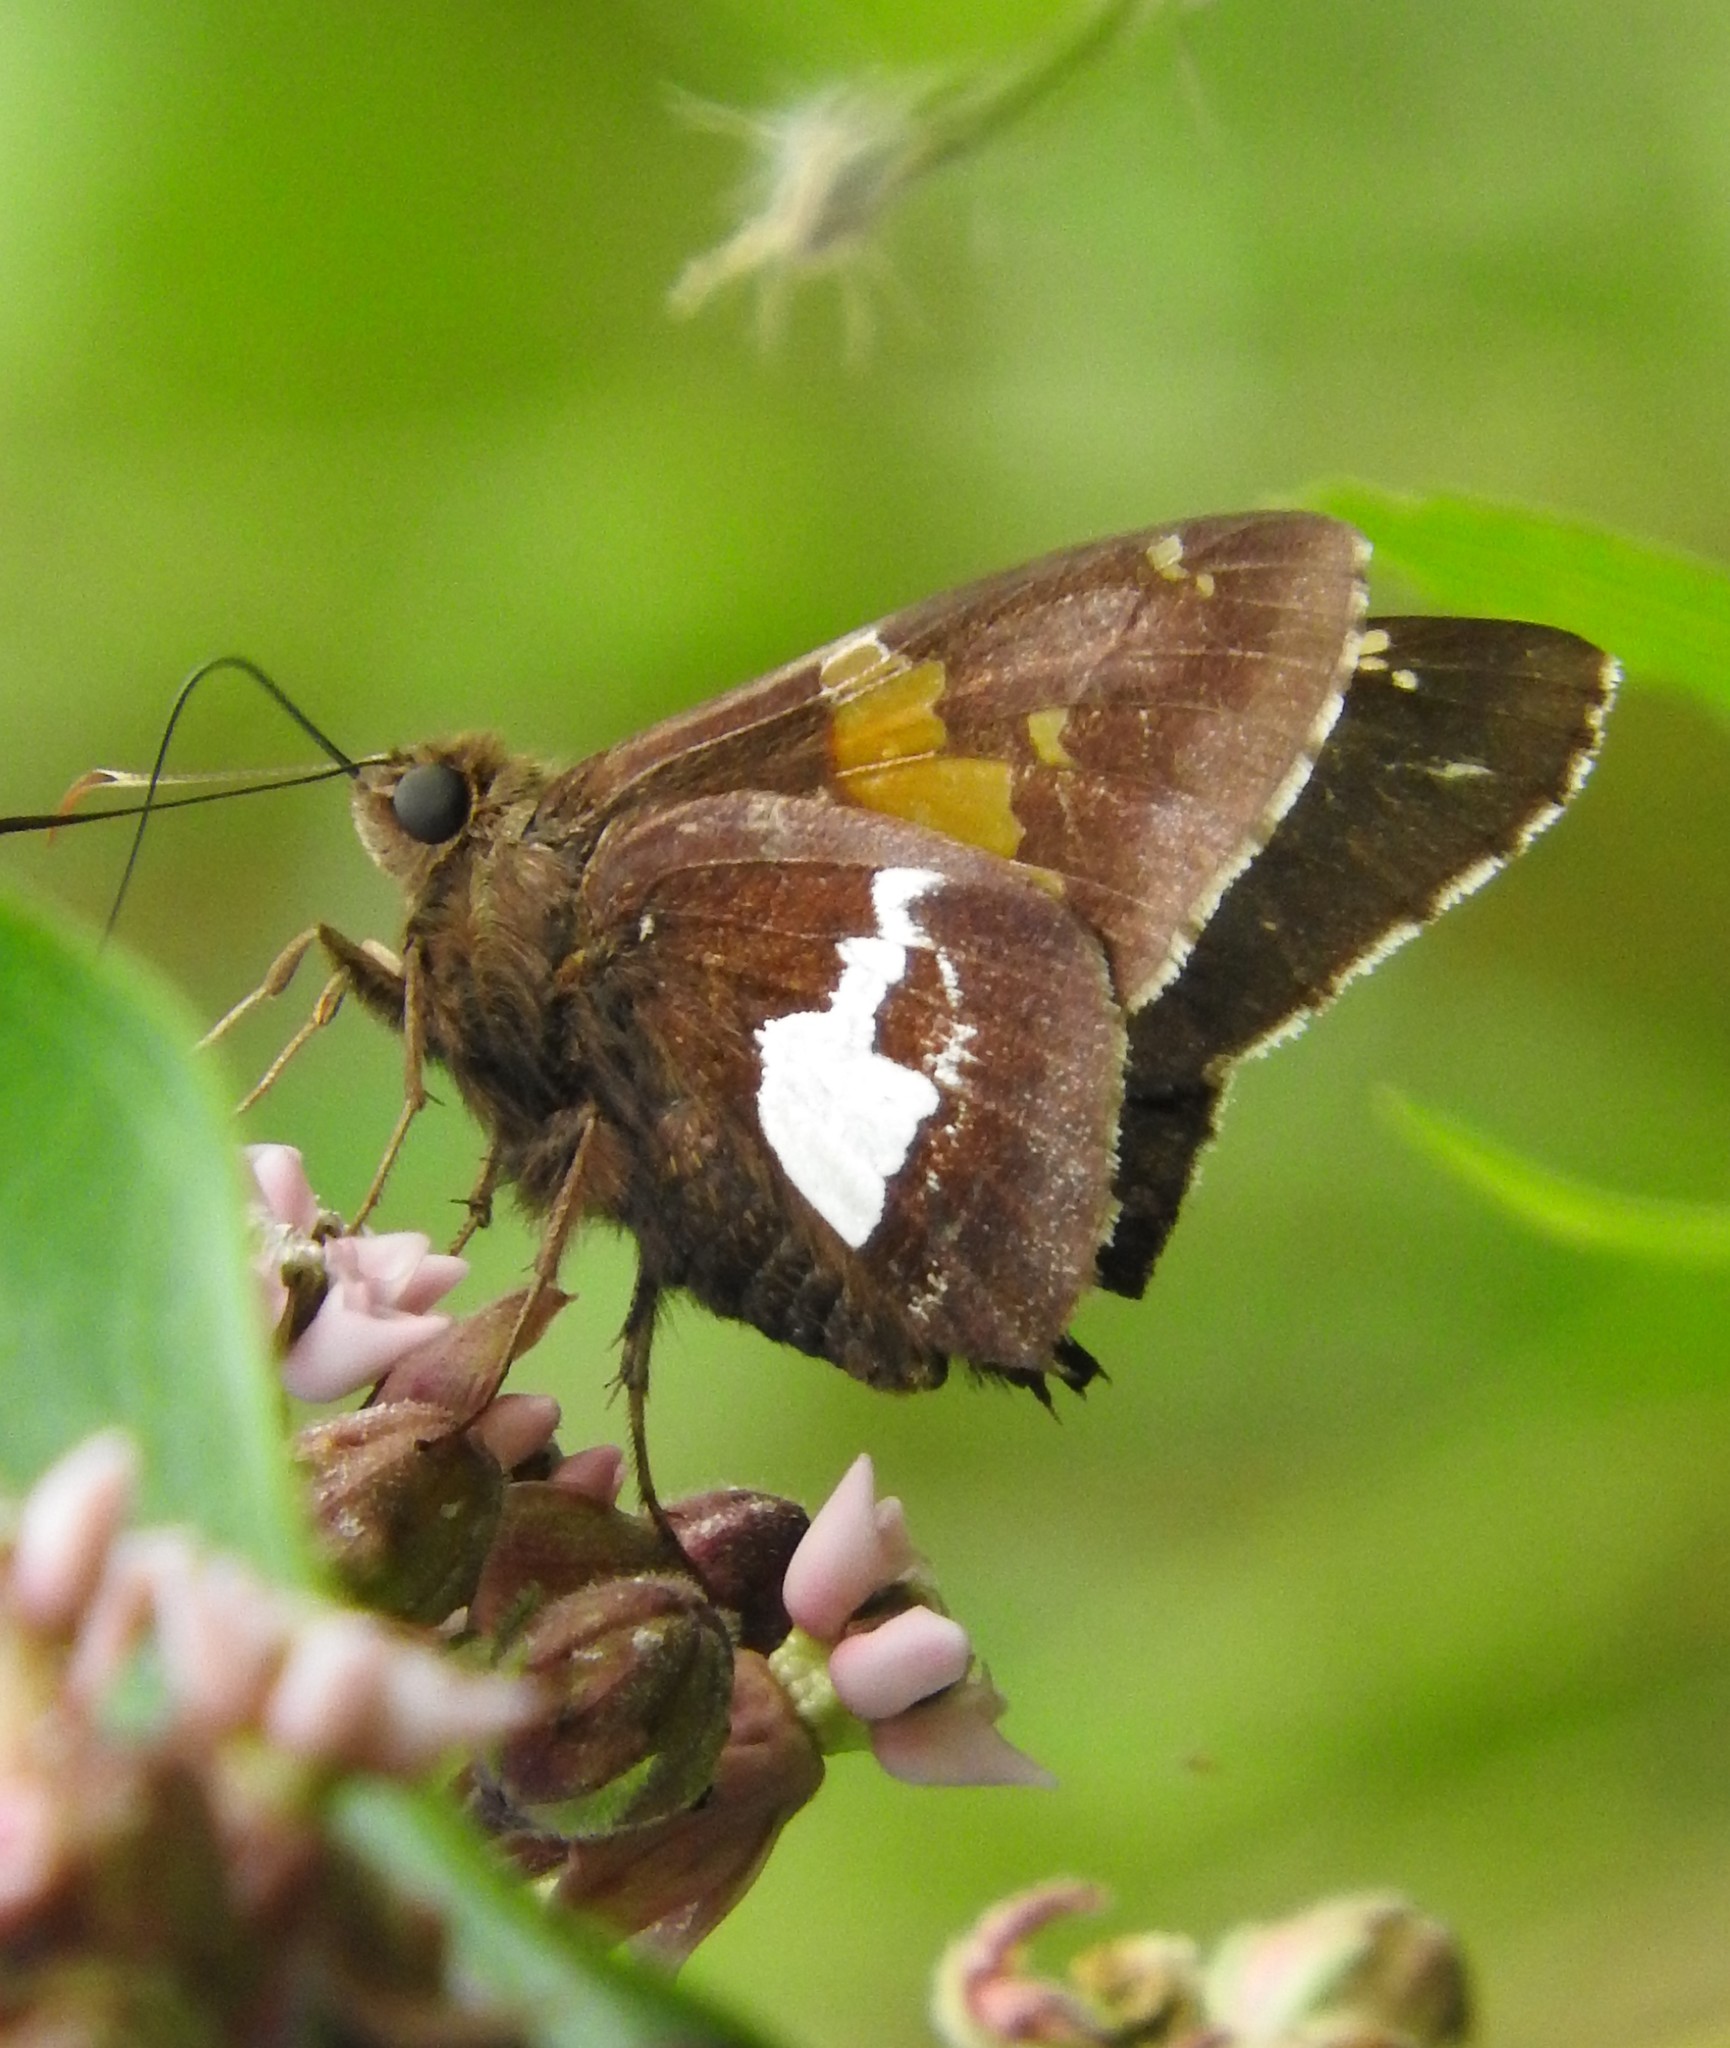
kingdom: Animalia
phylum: Arthropoda
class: Insecta
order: Lepidoptera
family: Hesperiidae
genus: Epargyreus
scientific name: Epargyreus clarus
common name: Silver-spotted skipper
